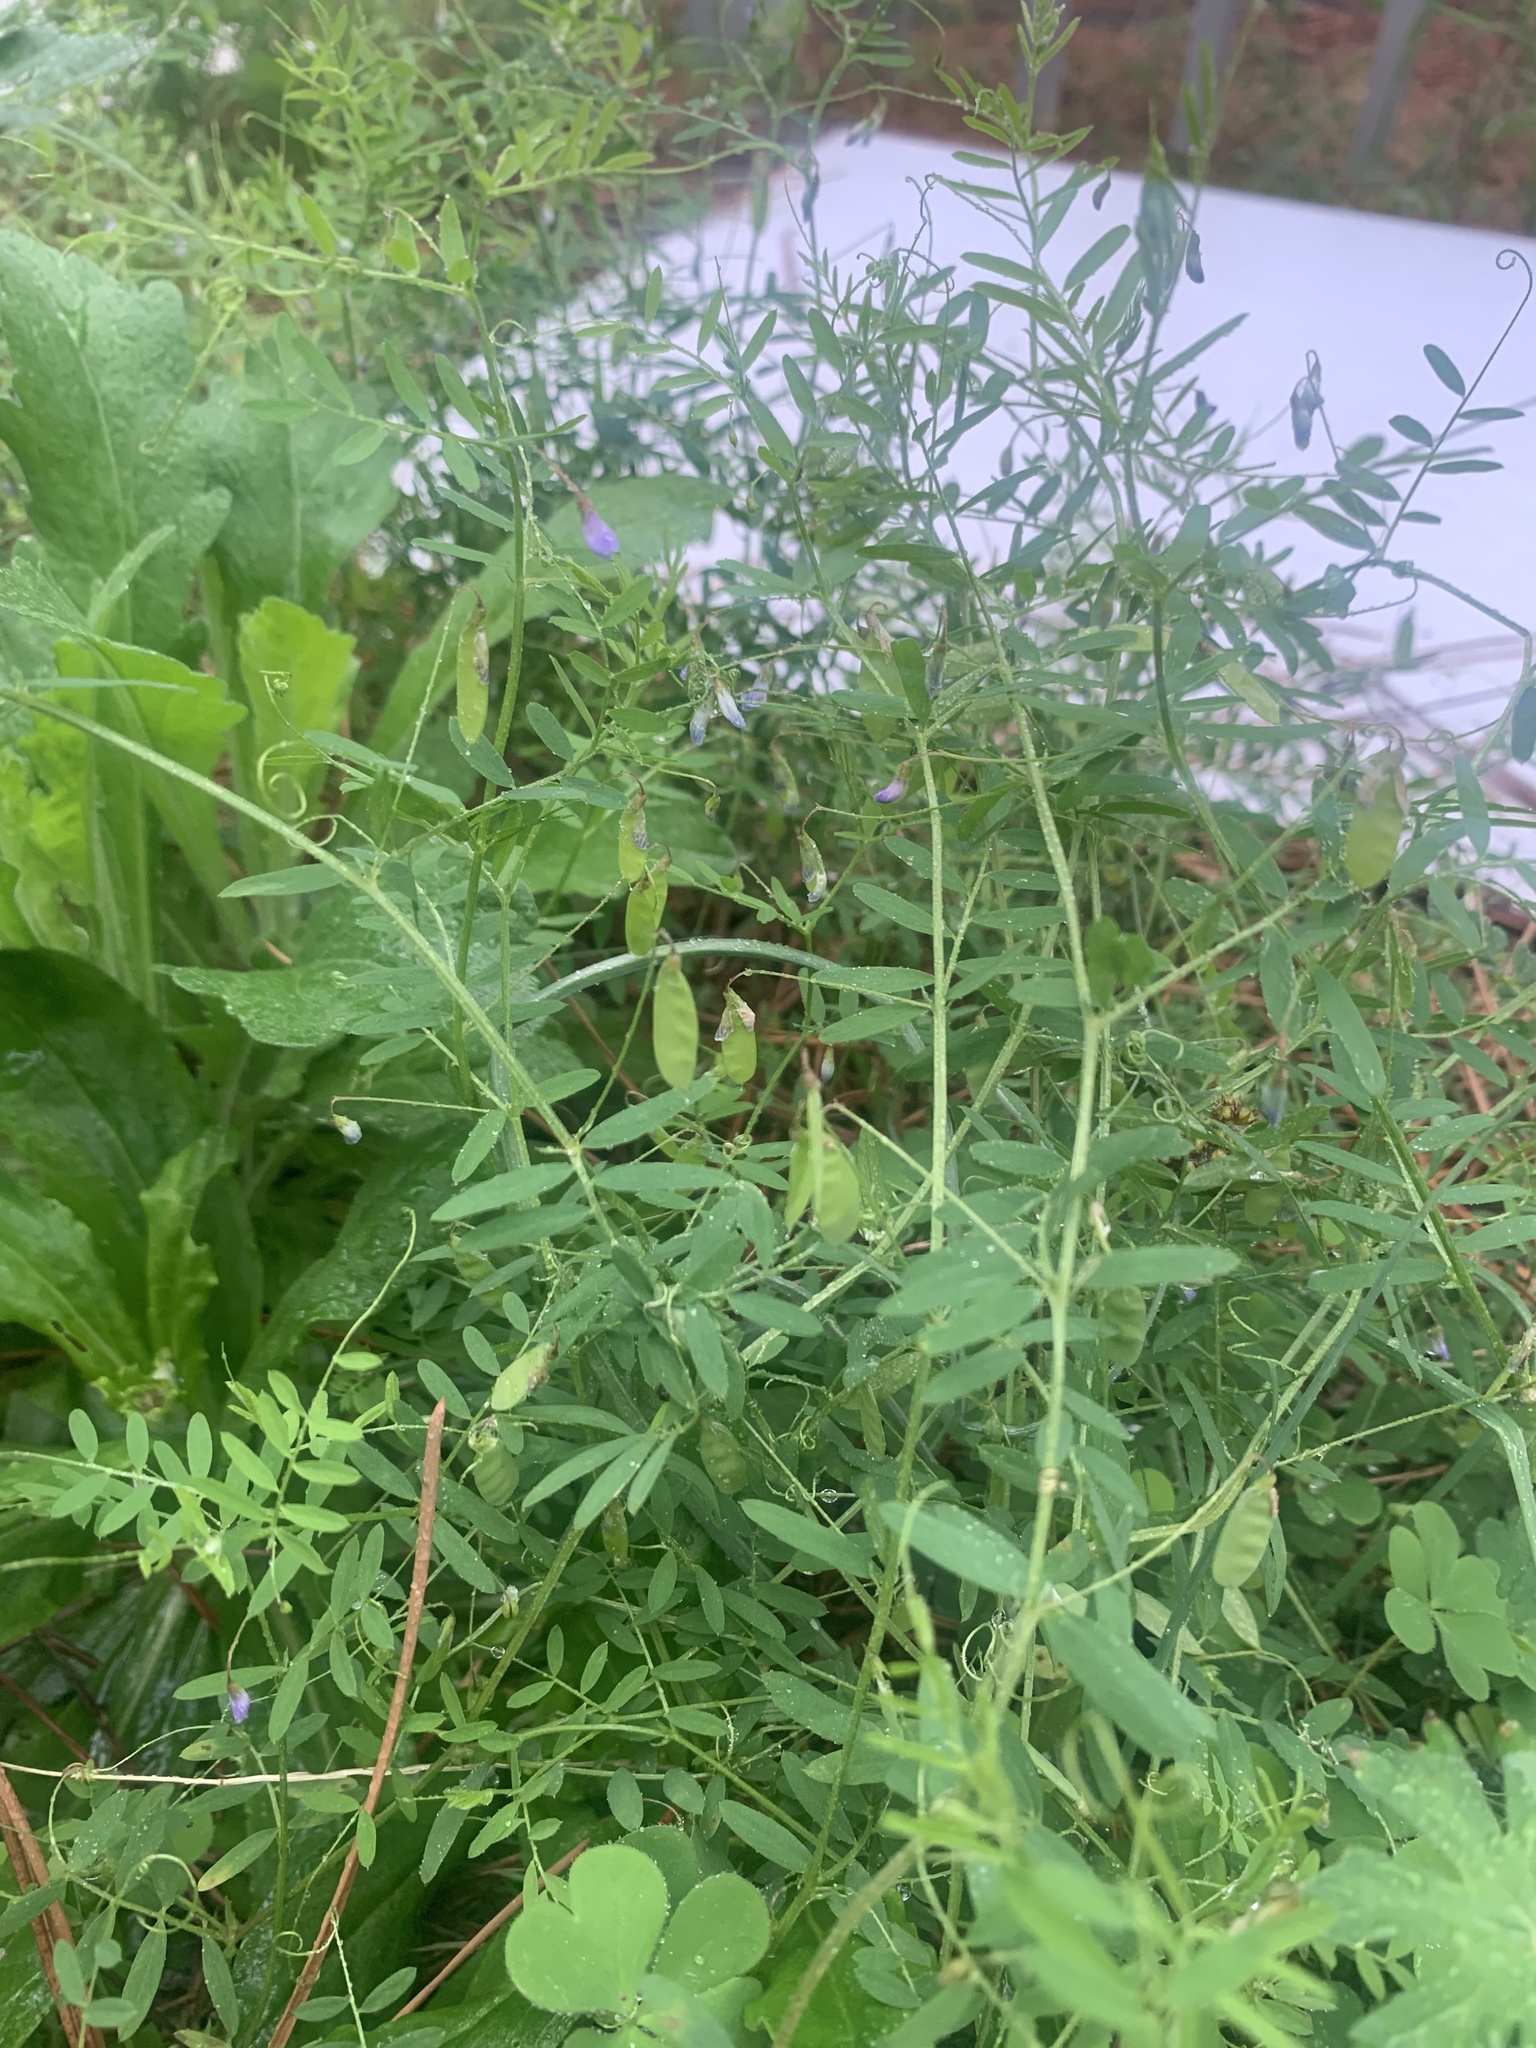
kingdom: Plantae
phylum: Tracheophyta
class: Magnoliopsida
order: Fabales
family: Fabaceae
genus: Vicia
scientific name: Vicia tetrasperma
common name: Smooth tare
